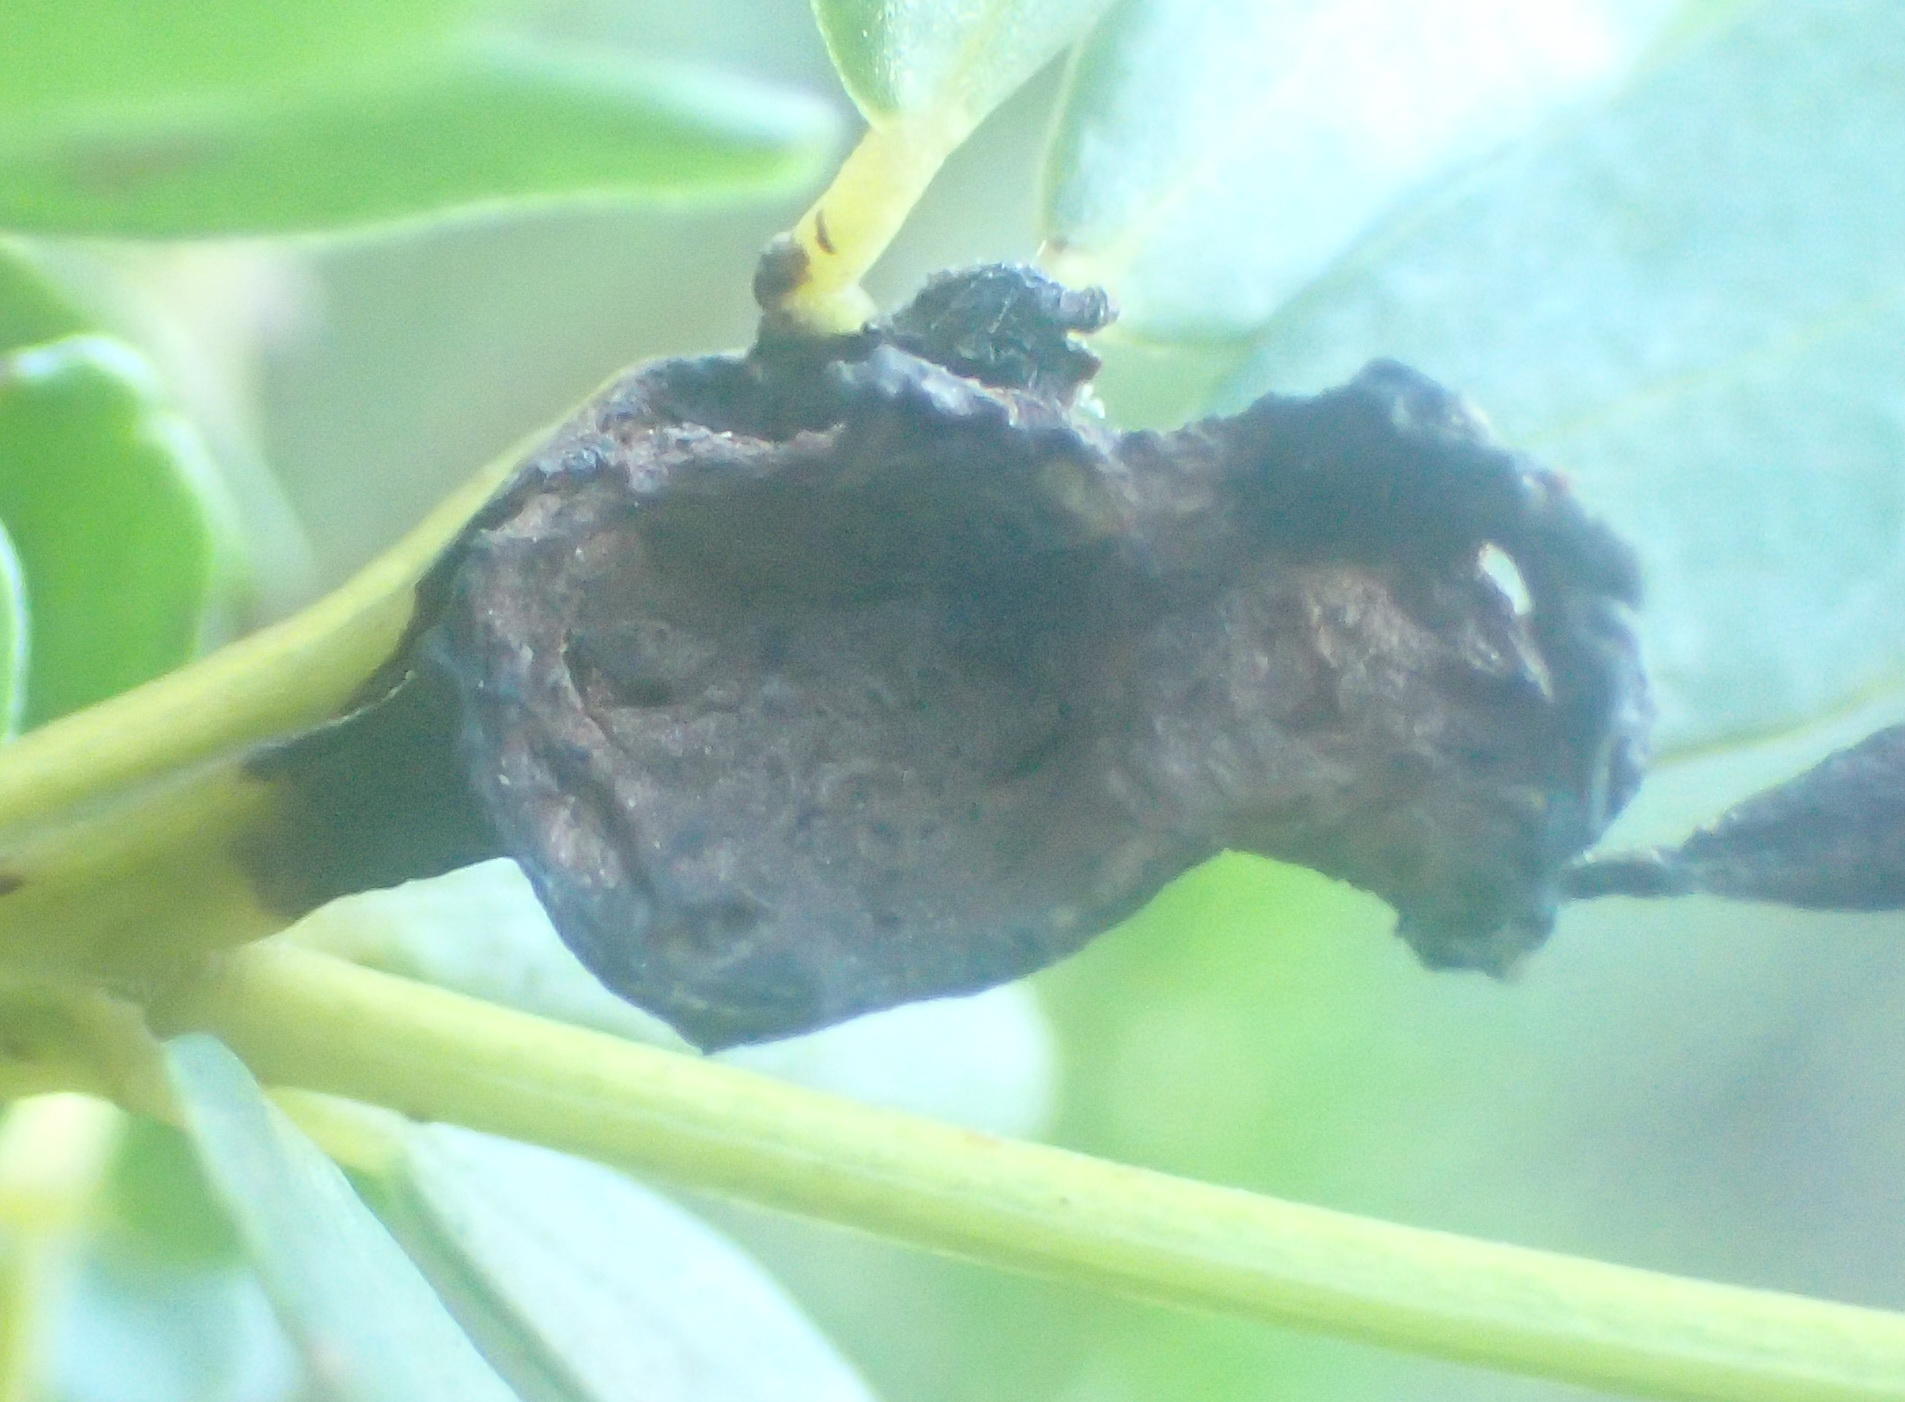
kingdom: Plantae
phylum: Tracheophyta
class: Magnoliopsida
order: Fabales
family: Fabaceae
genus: Cyclopia
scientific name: Cyclopia subternata
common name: Honeybush tea
